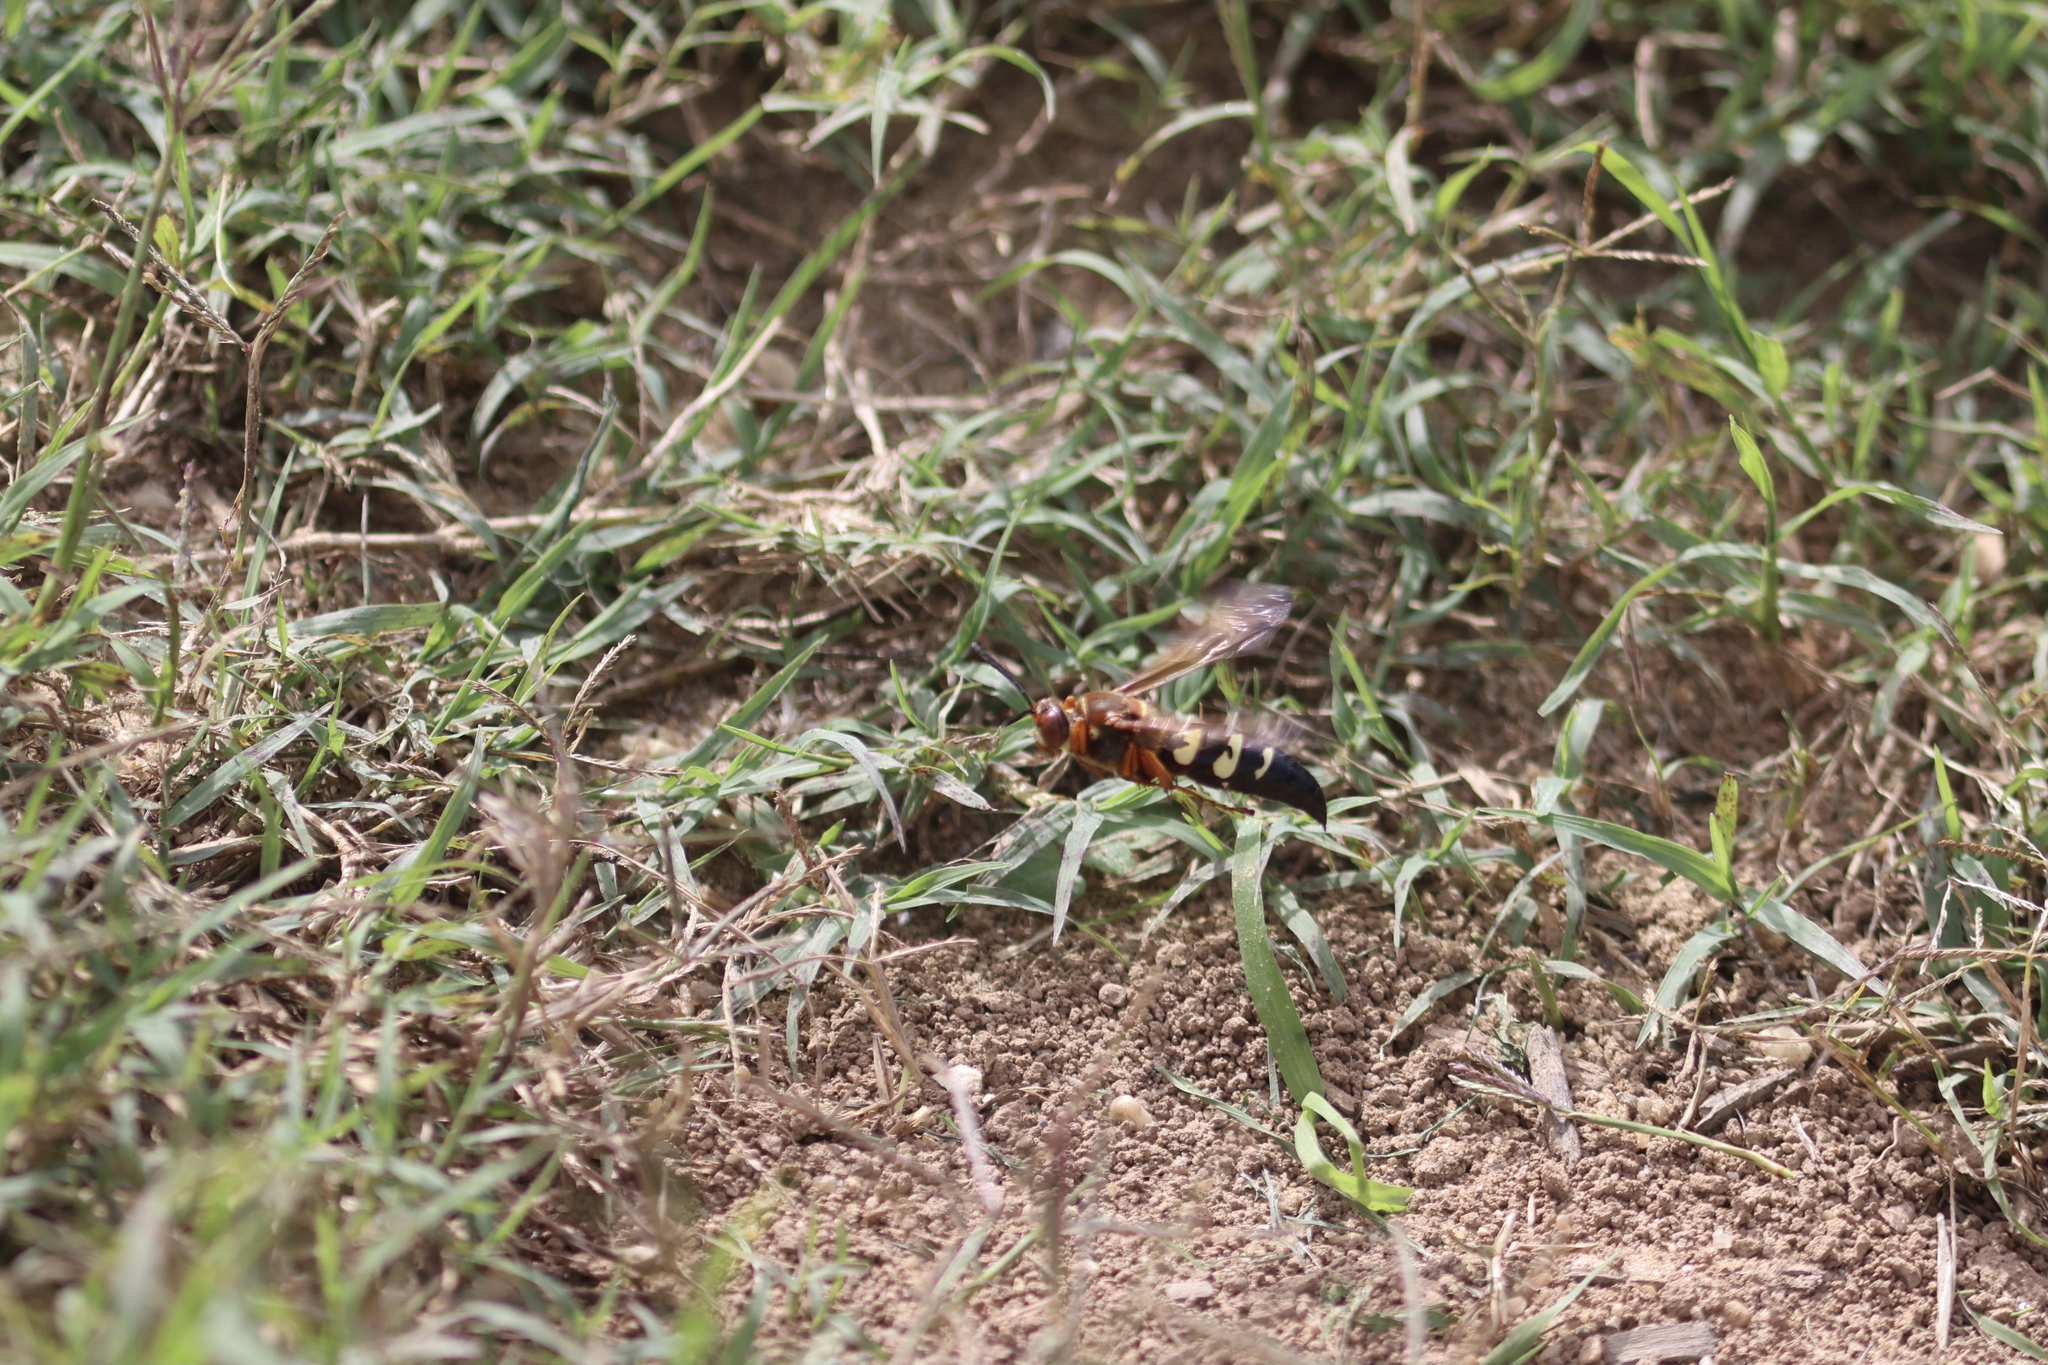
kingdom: Animalia
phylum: Arthropoda
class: Insecta
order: Hymenoptera
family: Crabronidae
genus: Sphecius
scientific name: Sphecius speciosus
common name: Cicada killer
